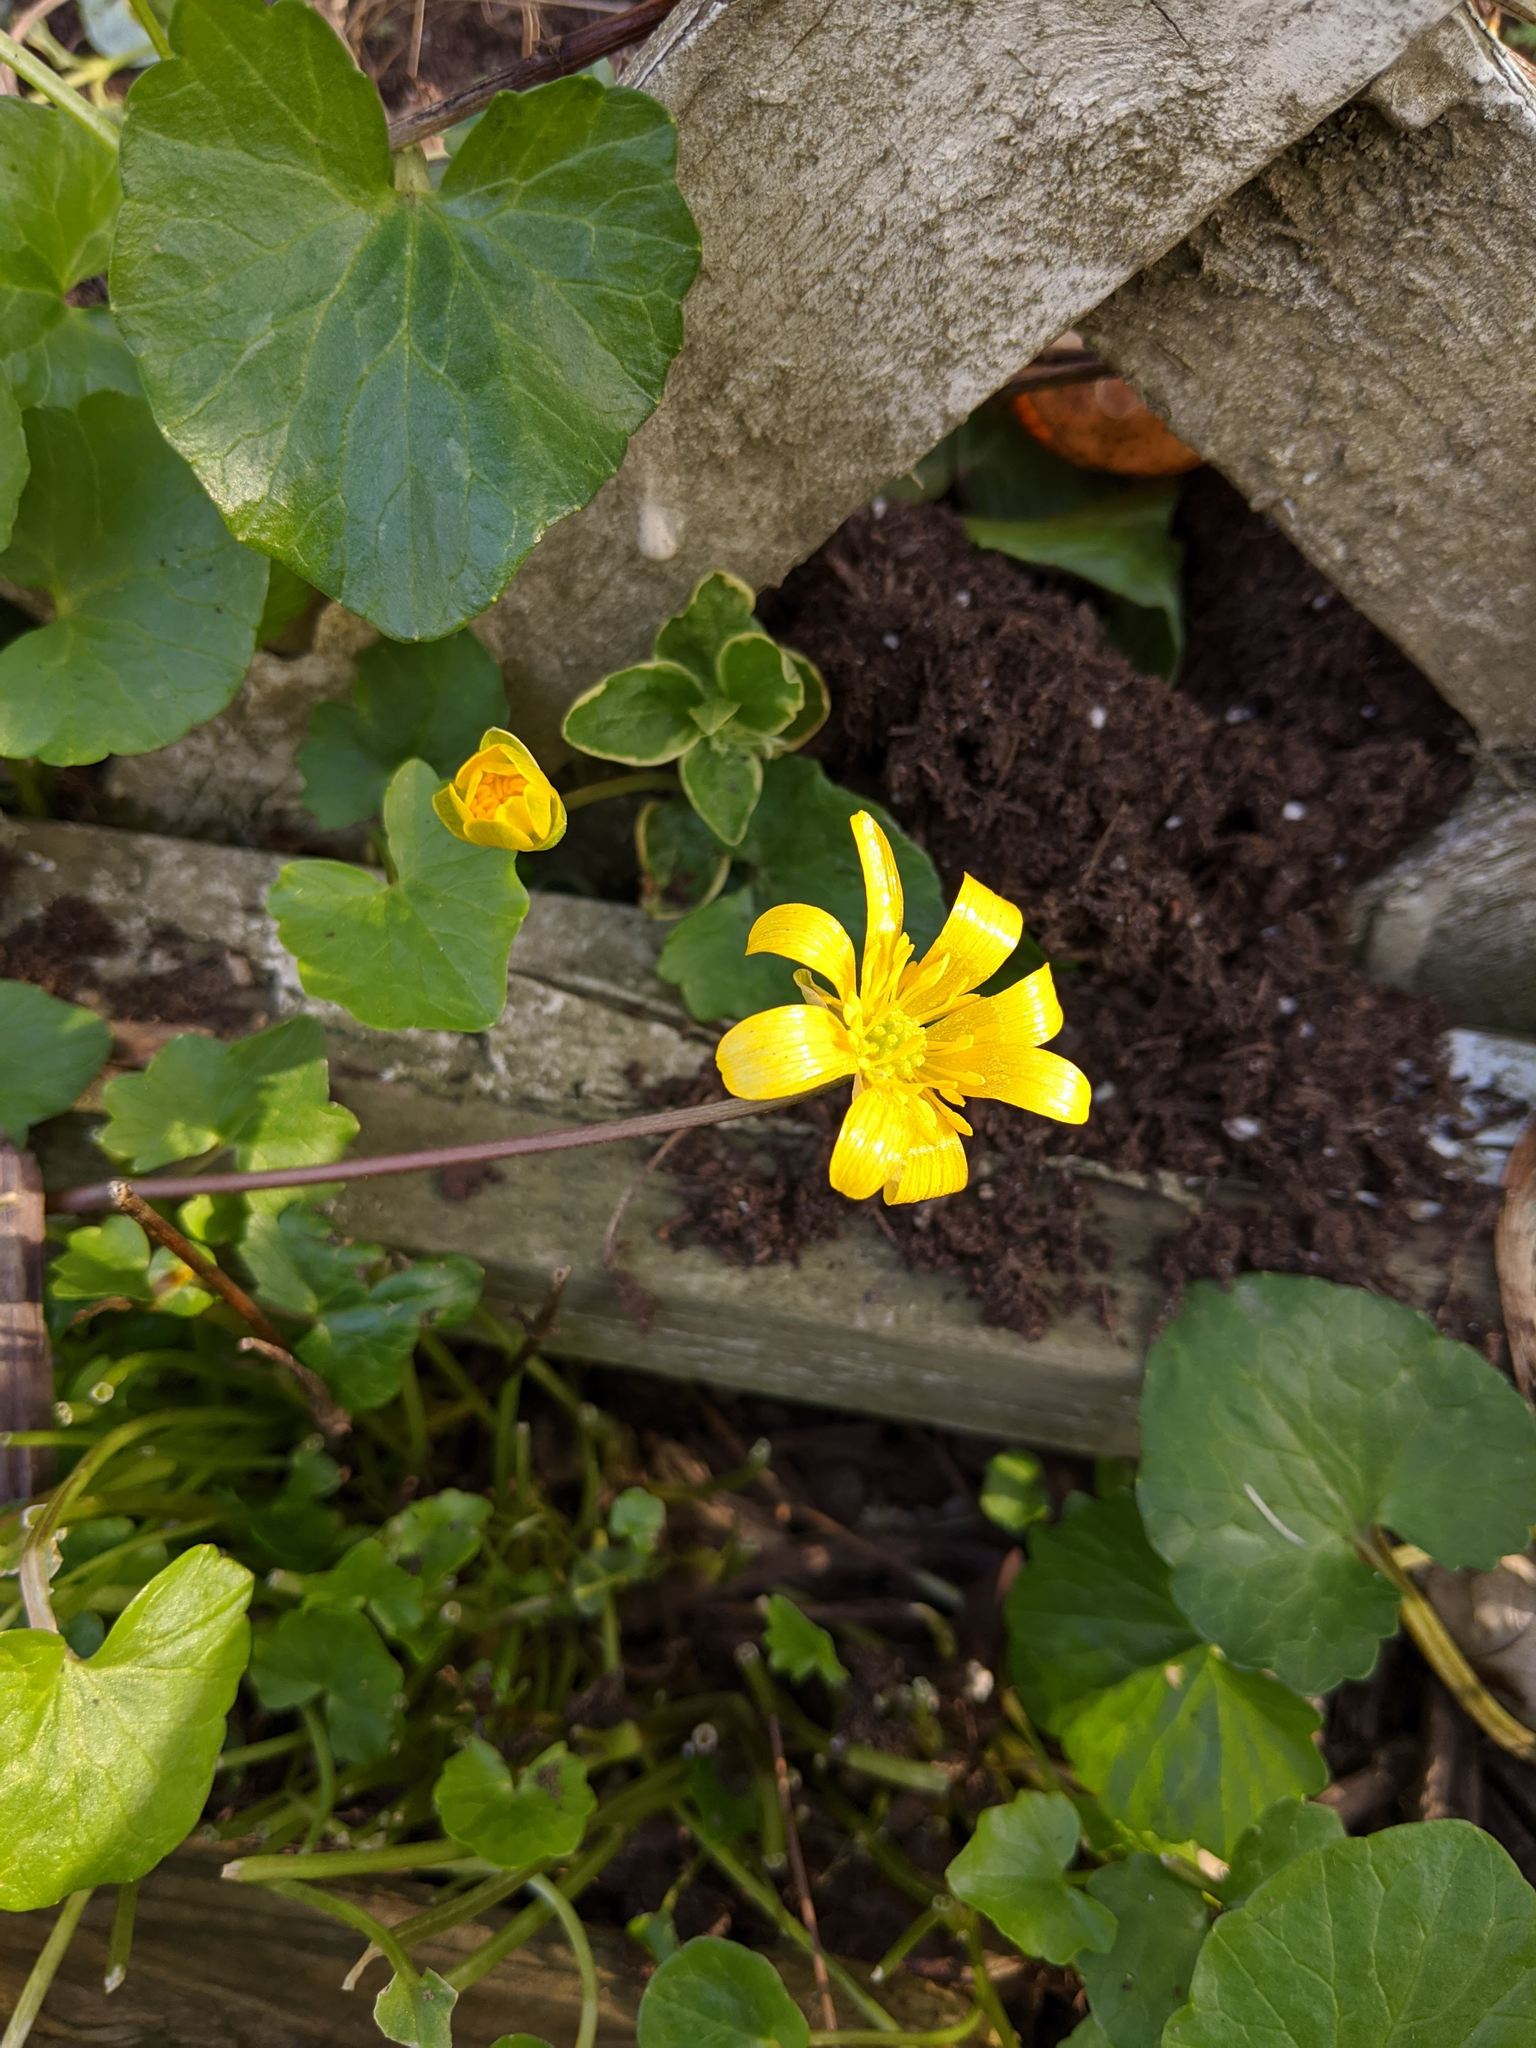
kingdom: Plantae
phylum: Tracheophyta
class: Magnoliopsida
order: Ranunculales
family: Ranunculaceae
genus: Ficaria
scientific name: Ficaria verna
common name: Lesser celandine
